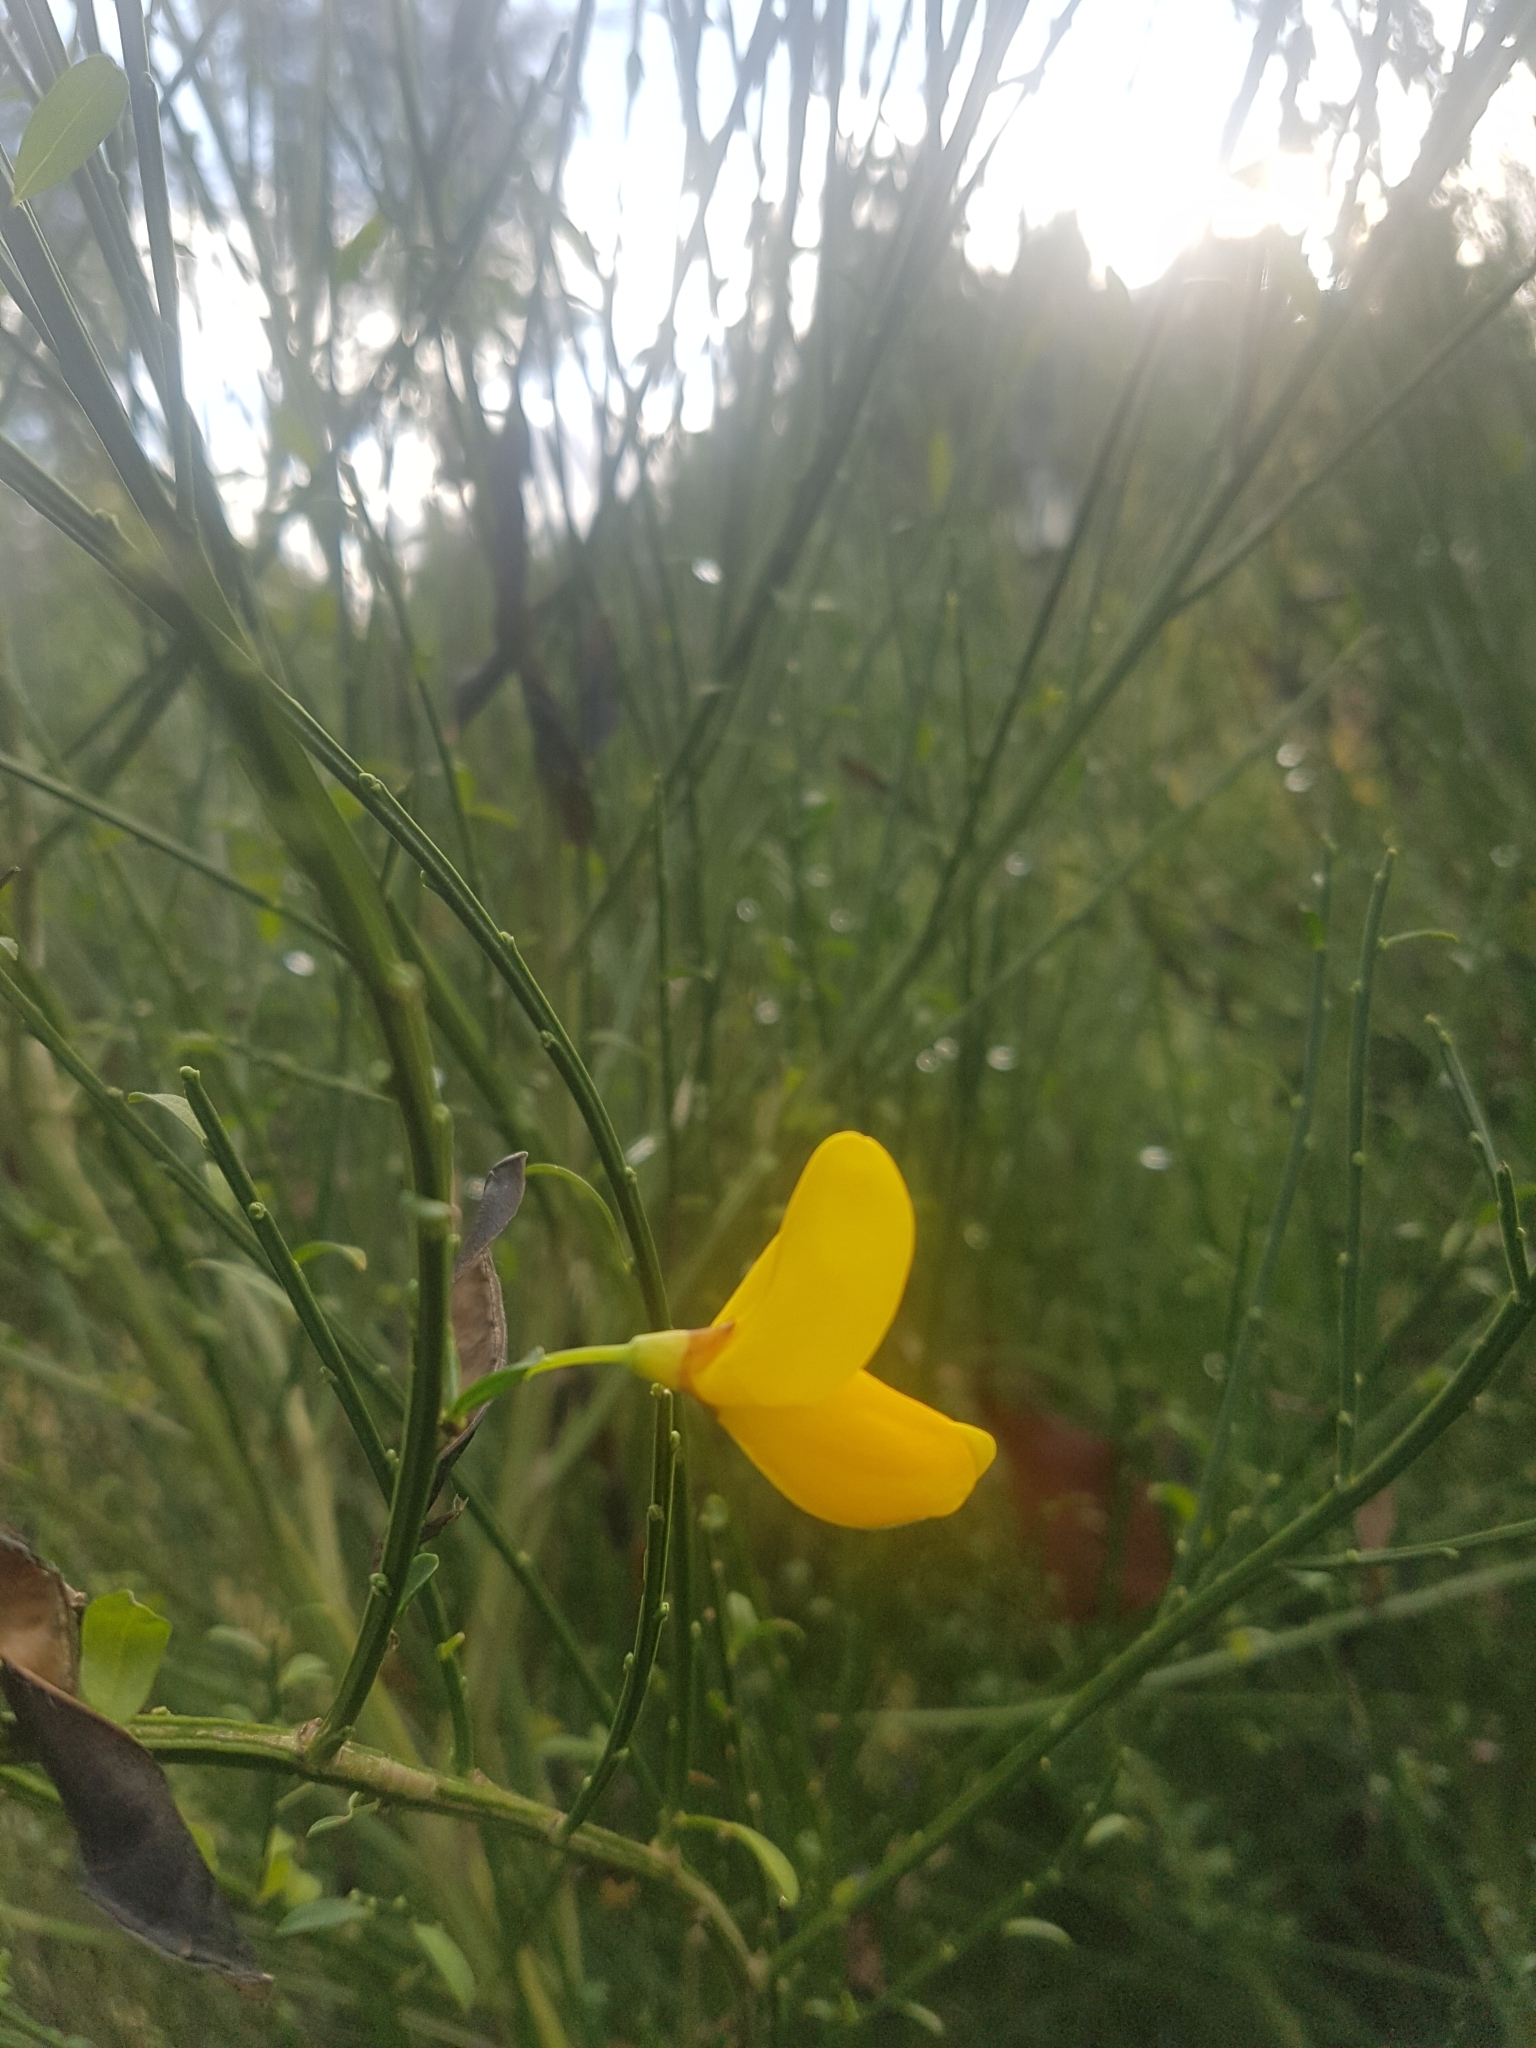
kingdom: Plantae
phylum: Tracheophyta
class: Magnoliopsida
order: Fabales
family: Fabaceae
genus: Cytisus
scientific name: Cytisus scoparius
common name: Scotch broom
